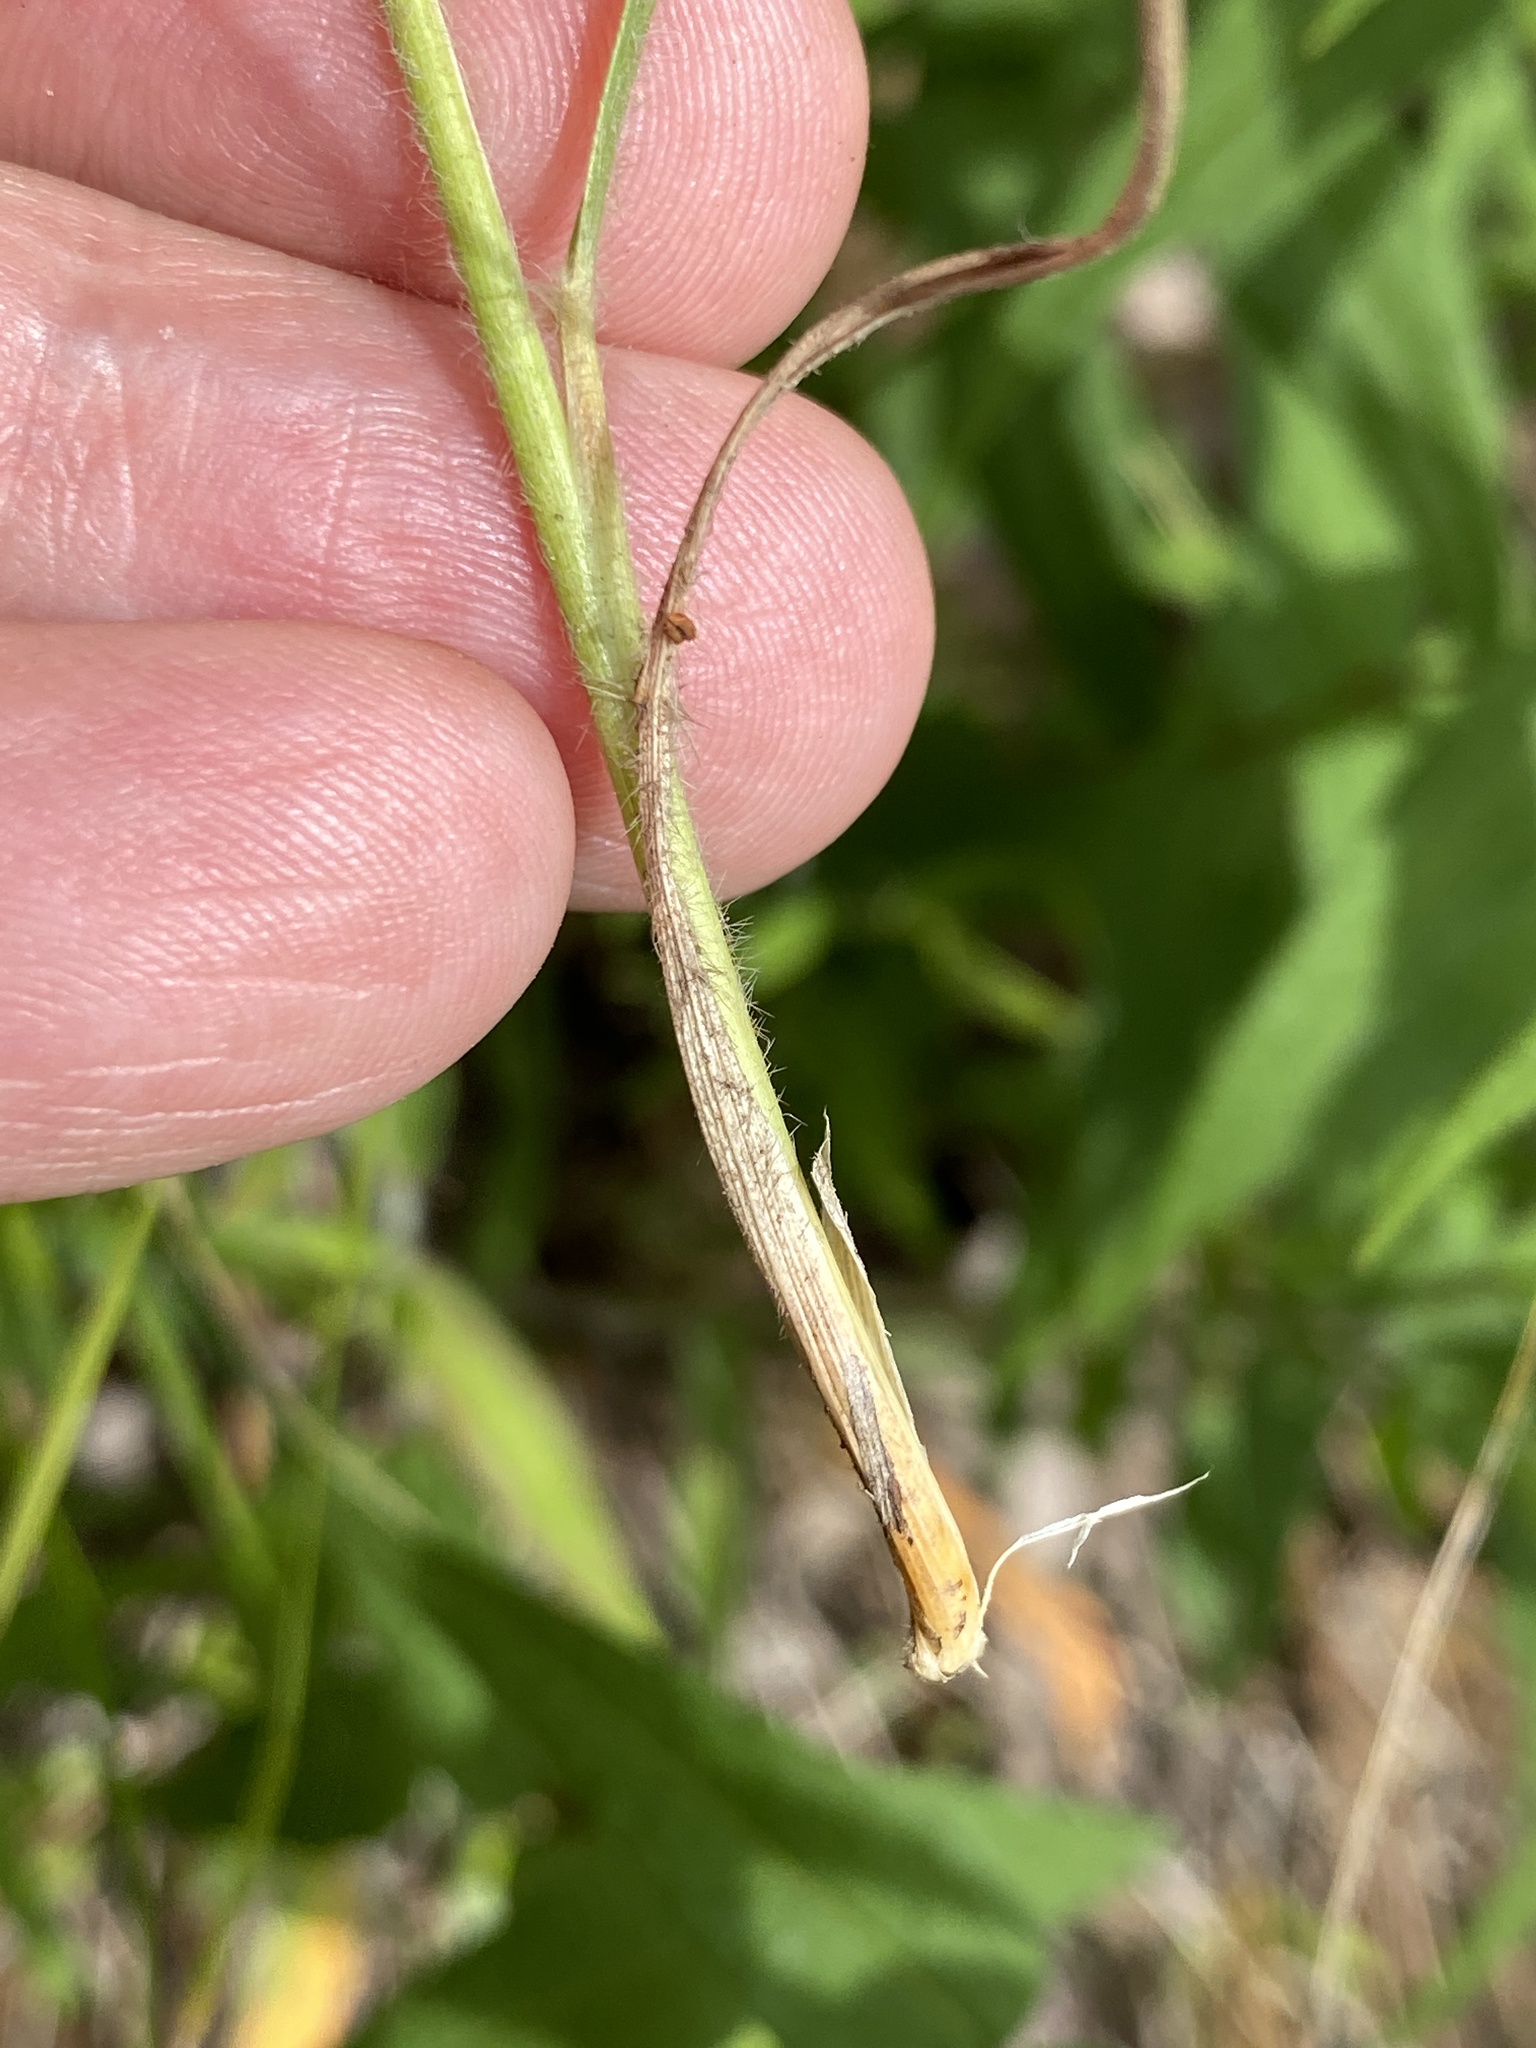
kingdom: Plantae
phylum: Tracheophyta
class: Liliopsida
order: Poales
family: Poaceae
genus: Danthonia
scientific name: Danthonia sericea
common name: Downy danthonia
